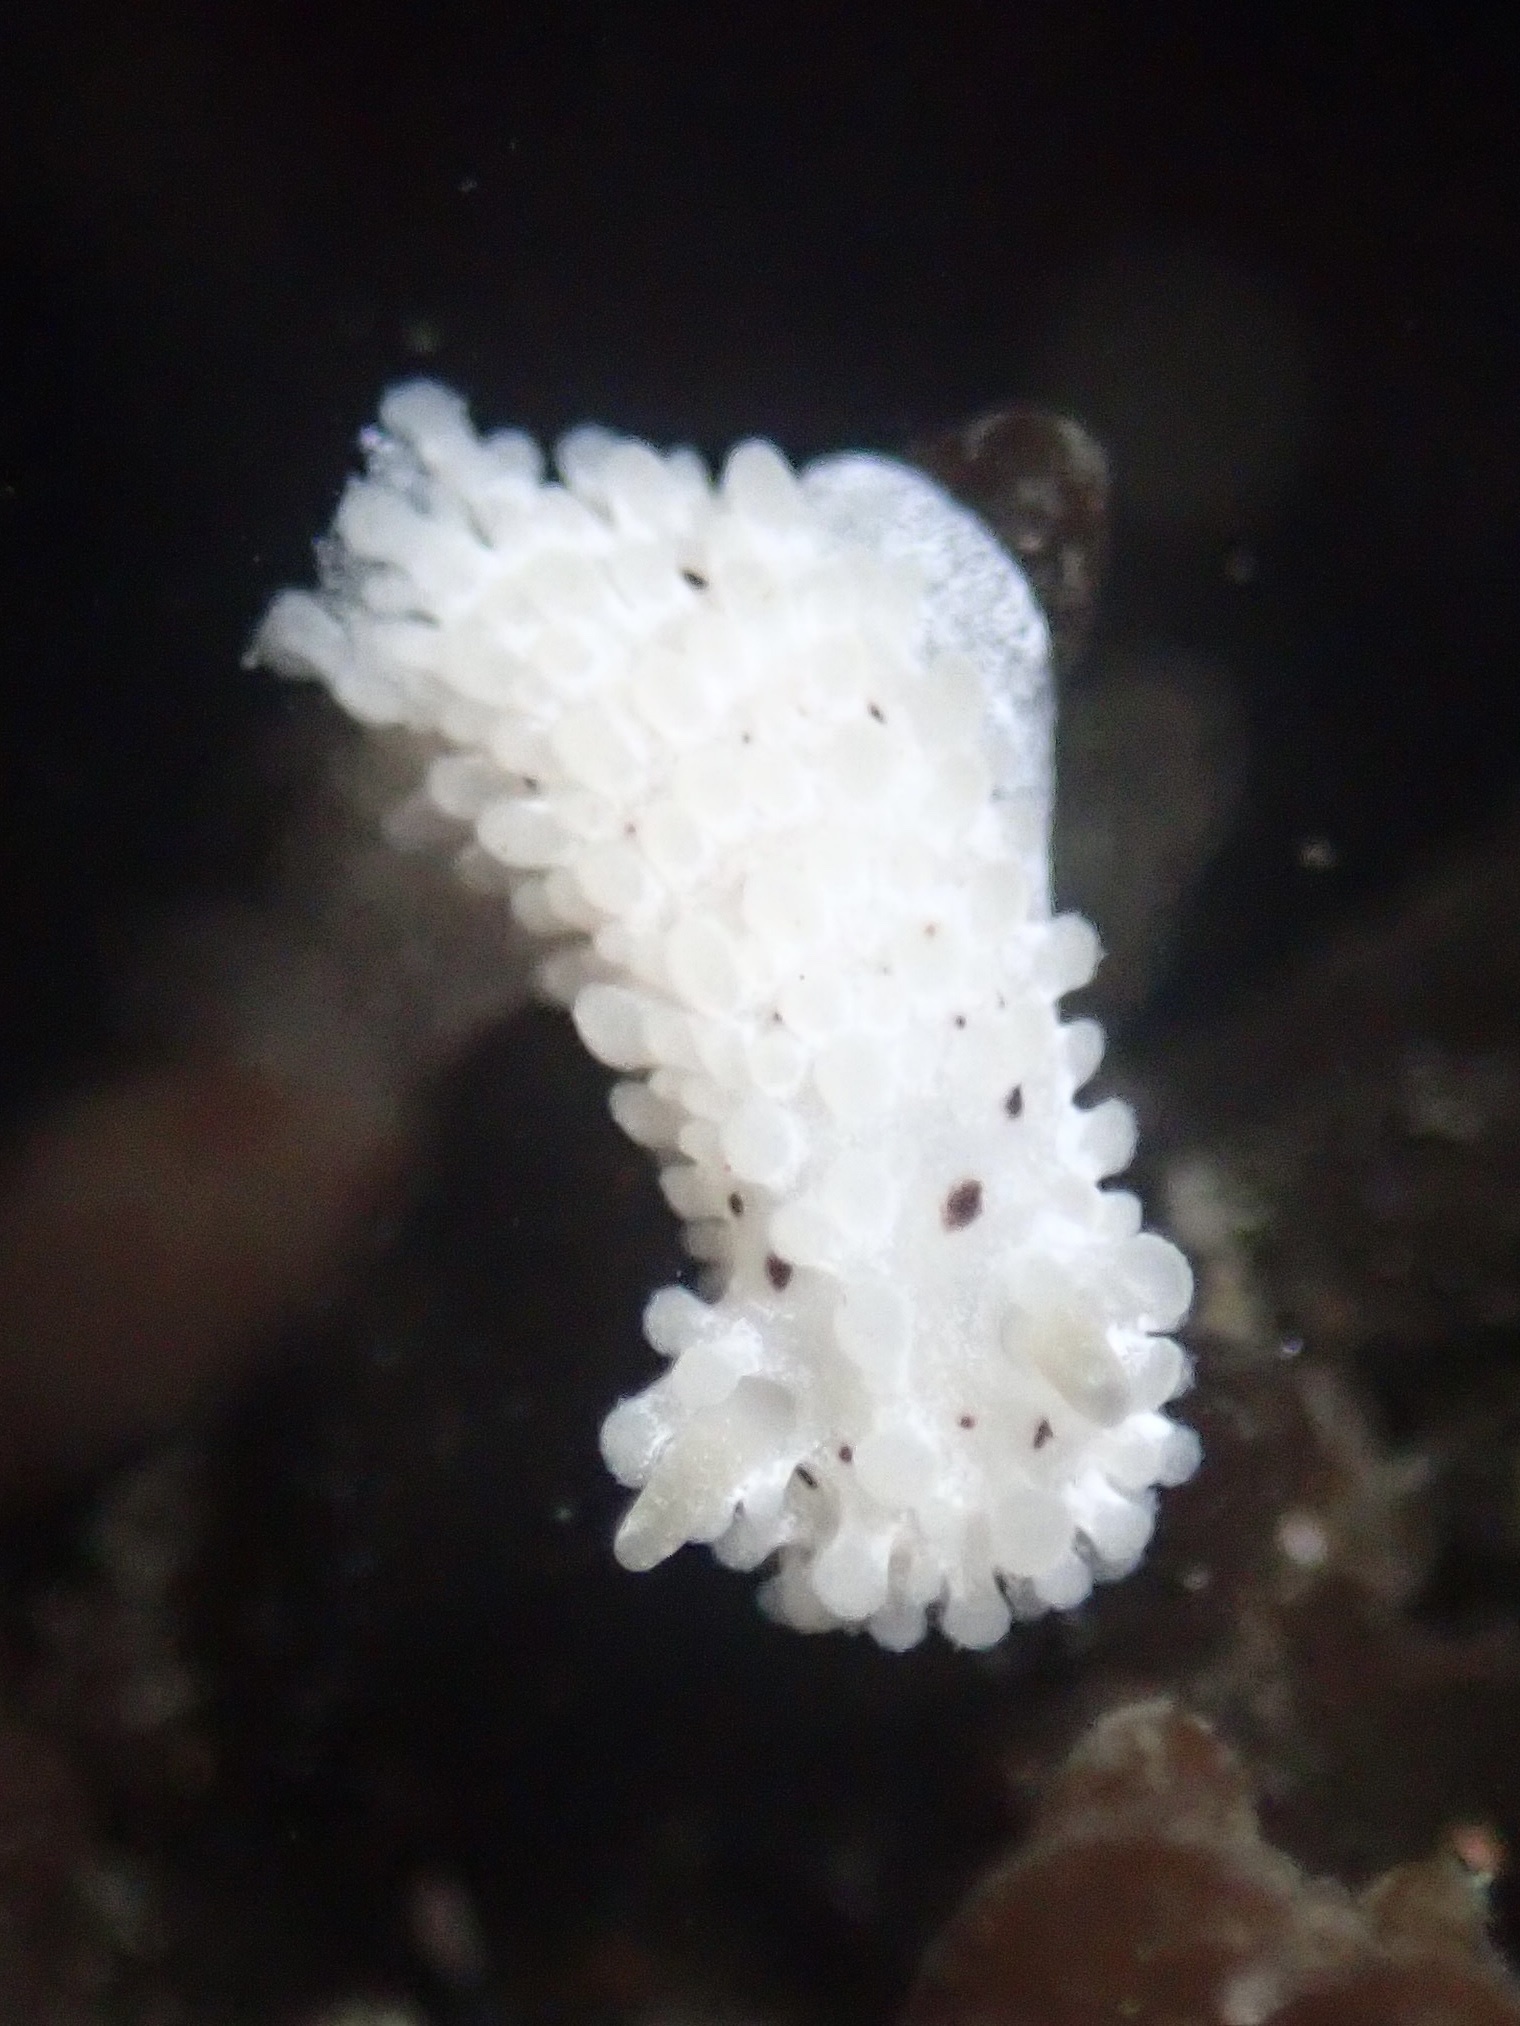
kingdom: Animalia
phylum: Mollusca
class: Gastropoda
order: Nudibranchia
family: Aegiridae
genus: Aegires
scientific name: Aegires albopunctatus
